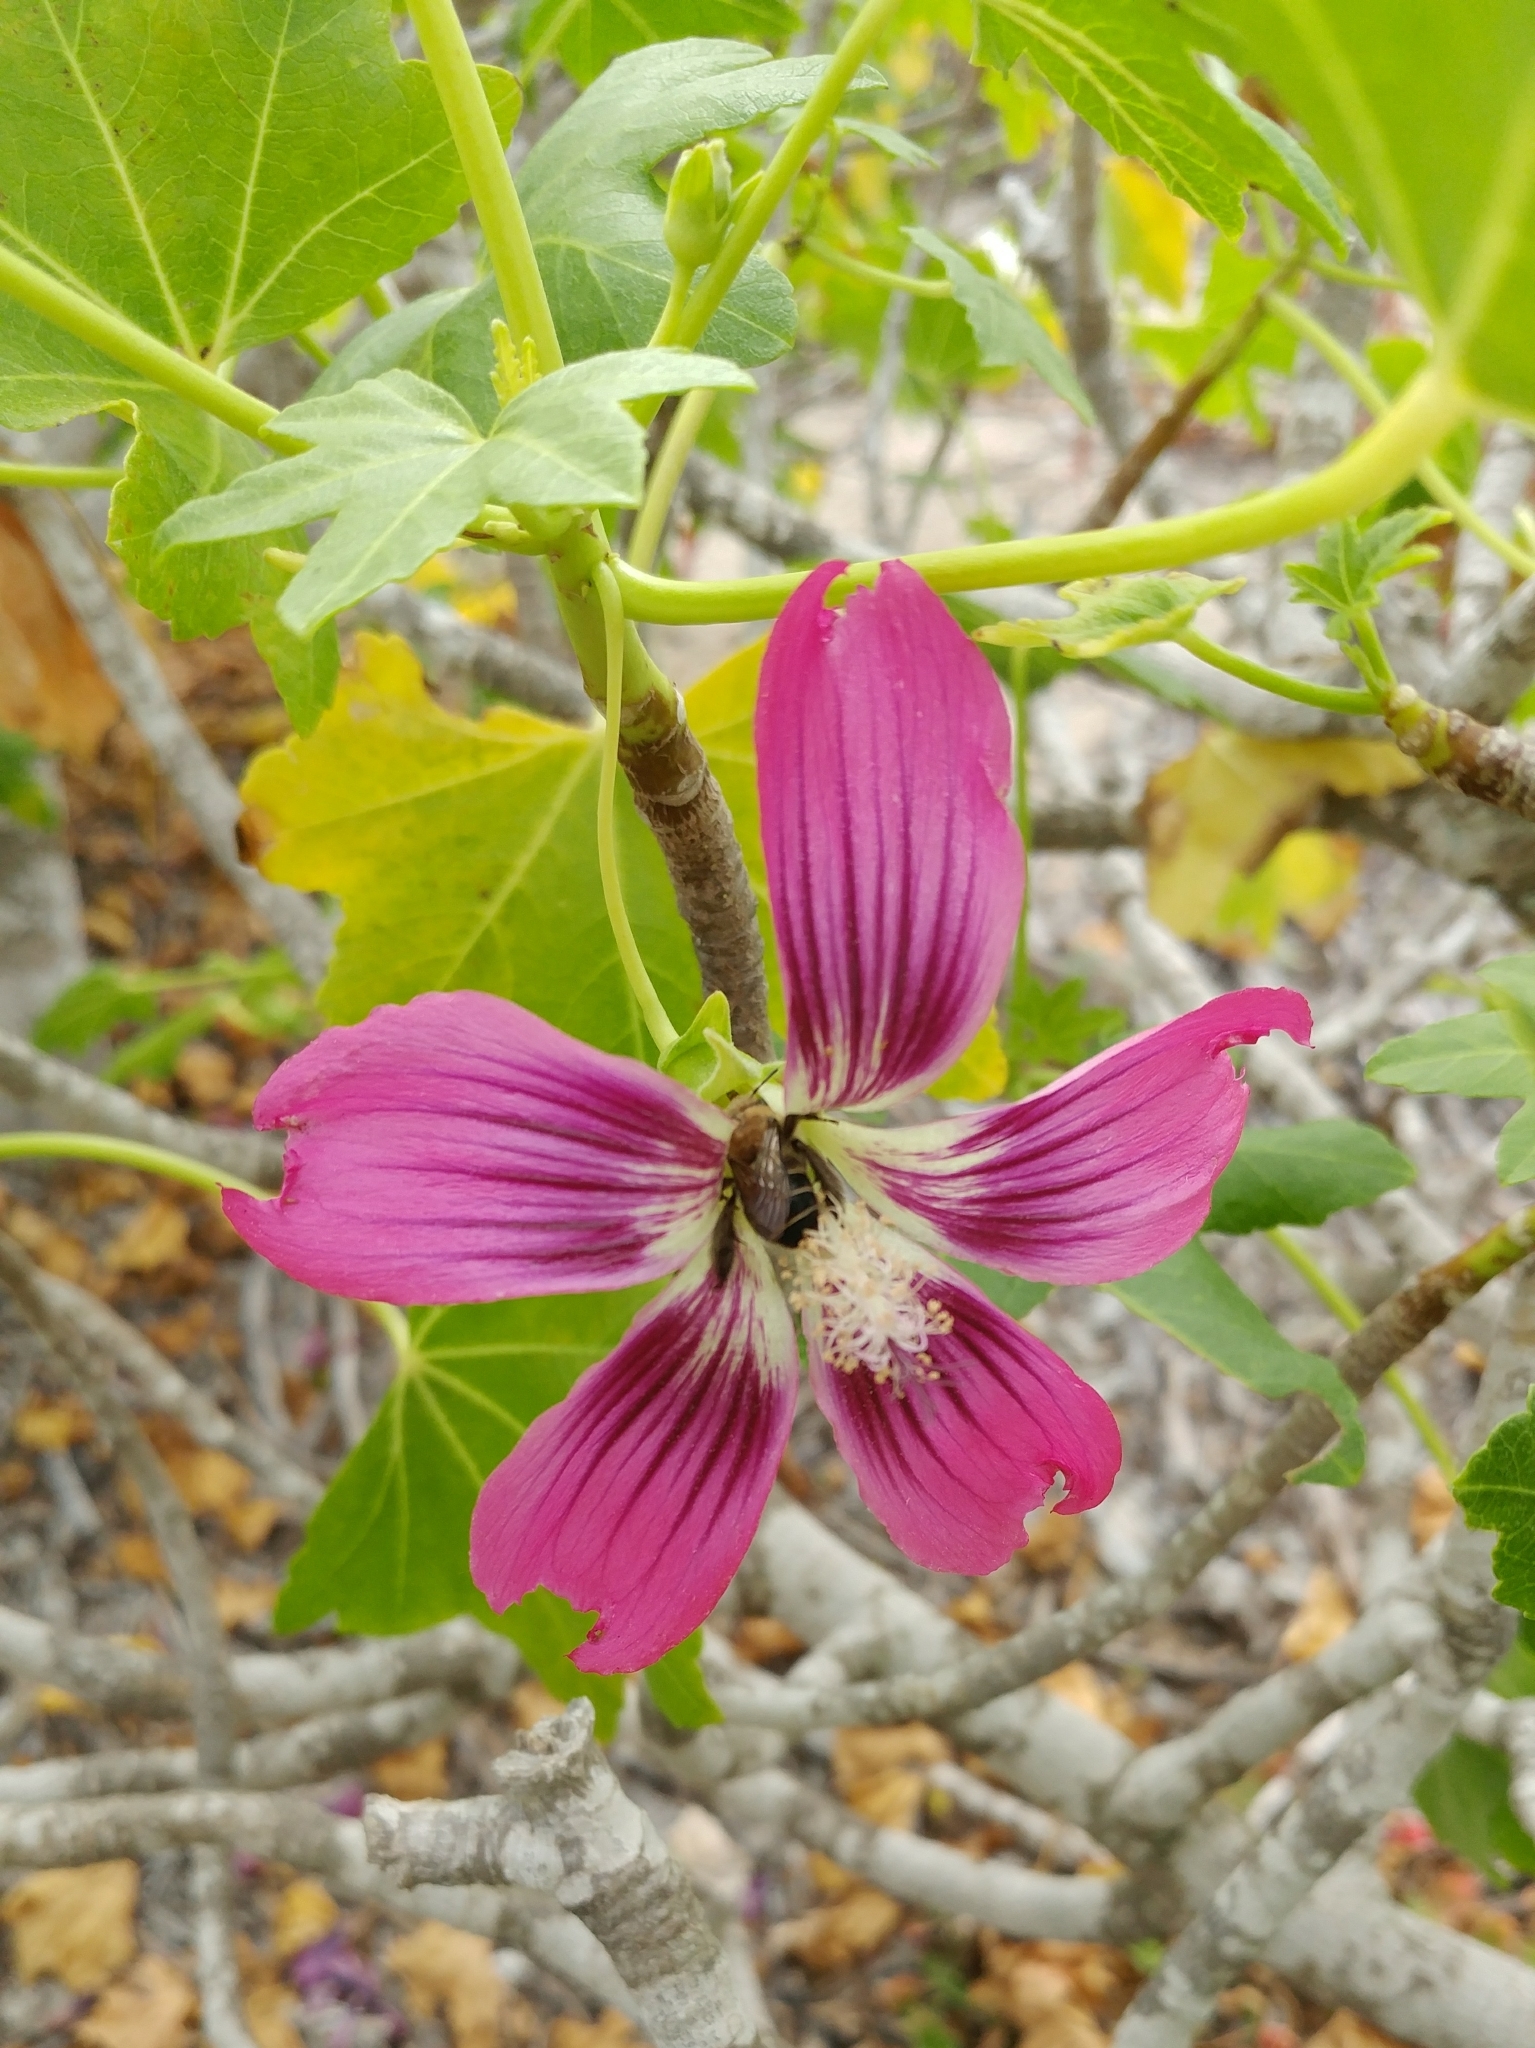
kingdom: Animalia
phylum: Arthropoda
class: Insecta
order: Hymenoptera
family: Apidae
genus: Diadasia
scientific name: Diadasia bituberculata
